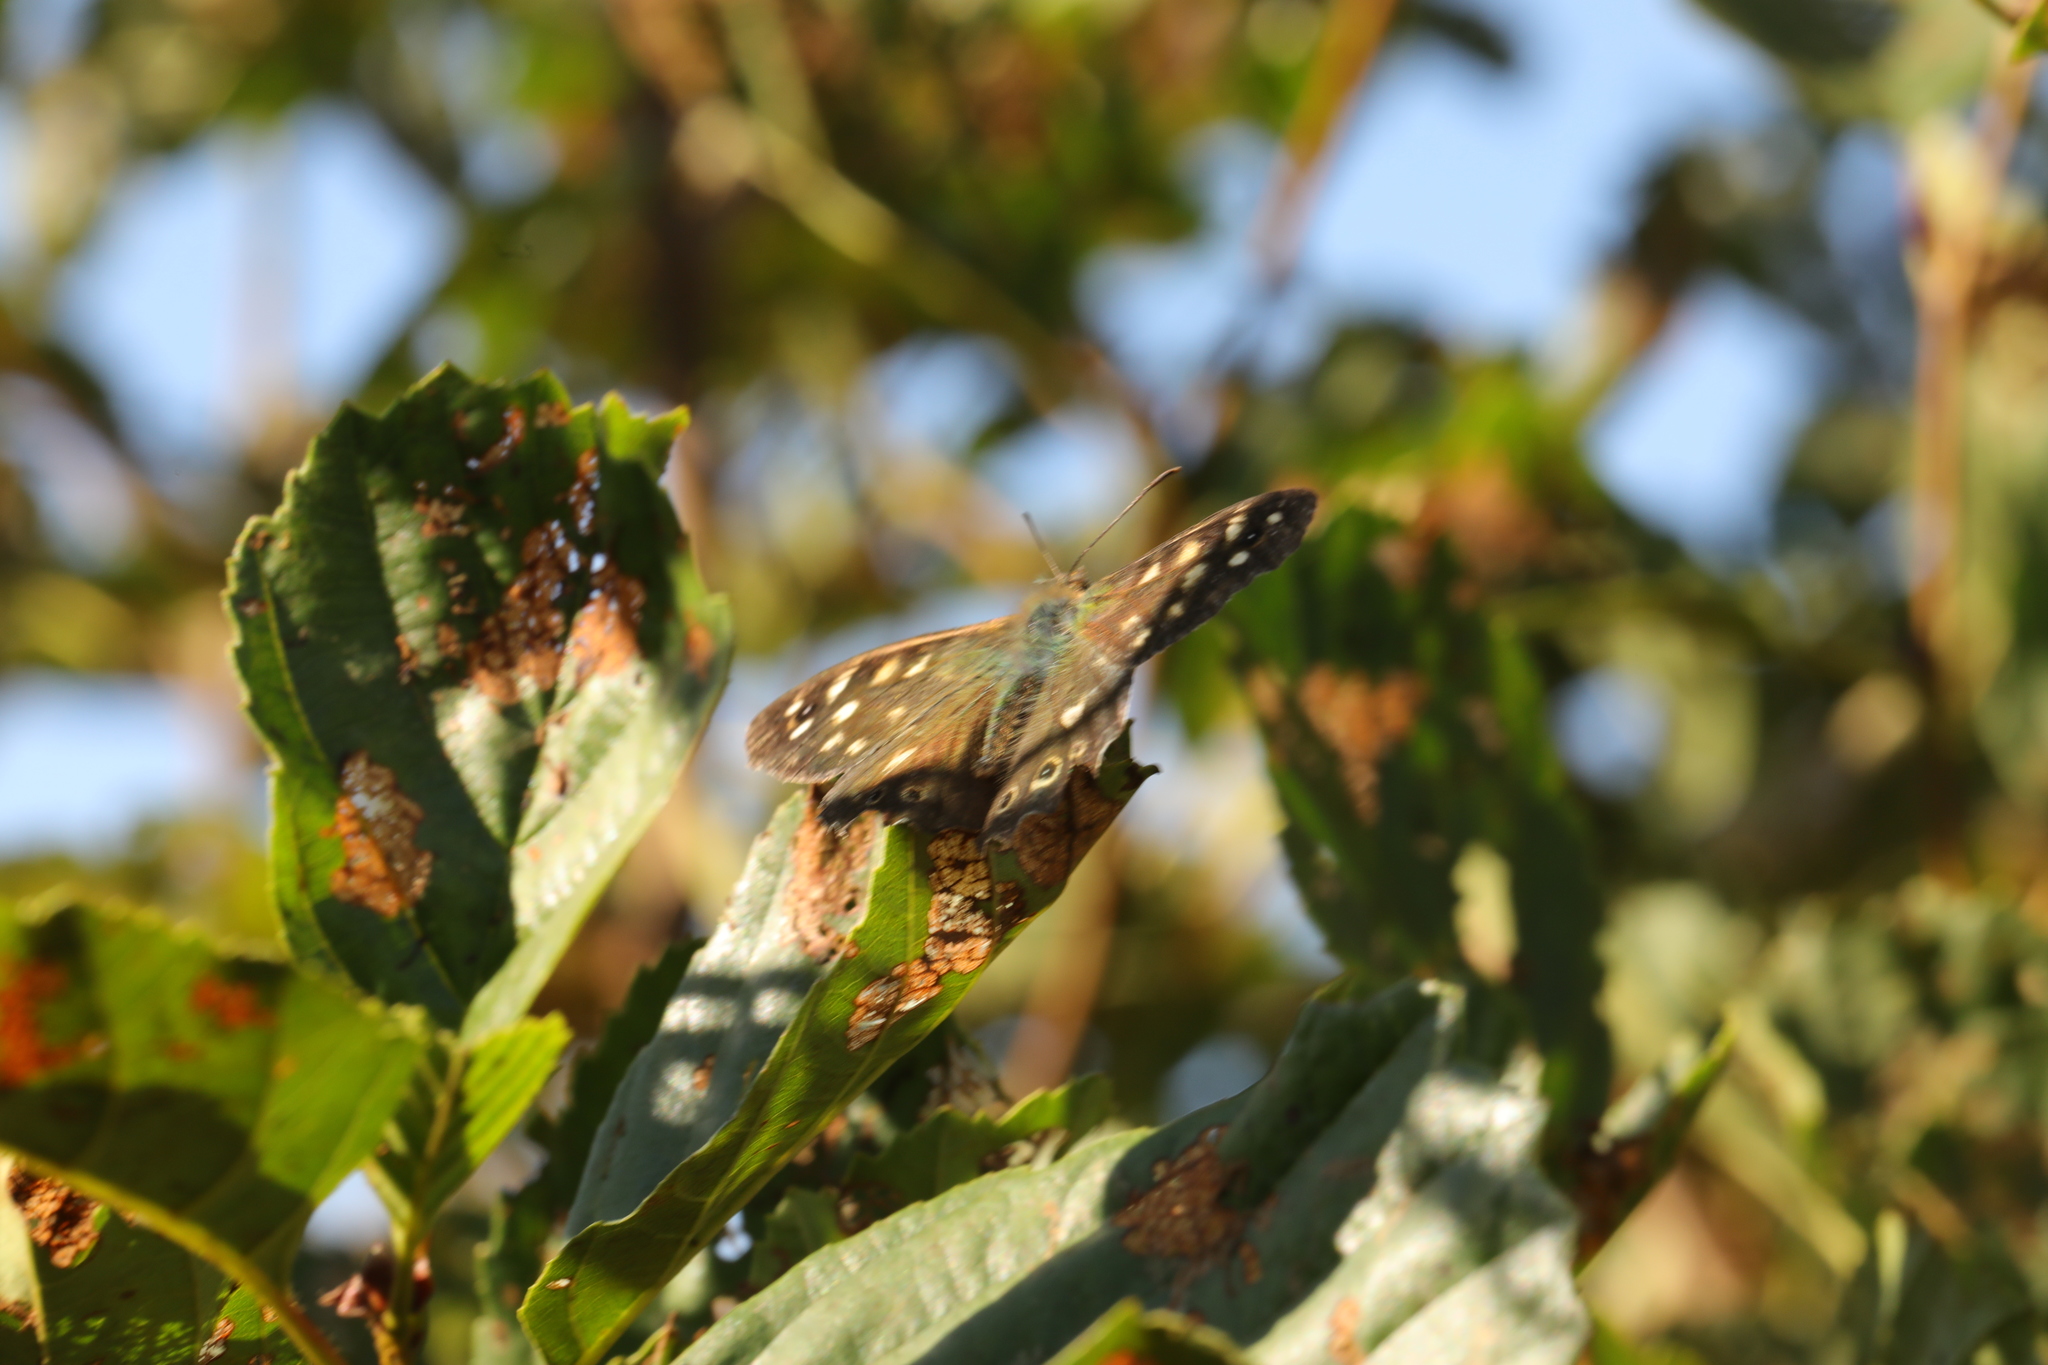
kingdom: Animalia
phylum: Arthropoda
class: Insecta
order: Lepidoptera
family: Nymphalidae
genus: Pararge
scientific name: Pararge aegeria
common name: Speckled wood
